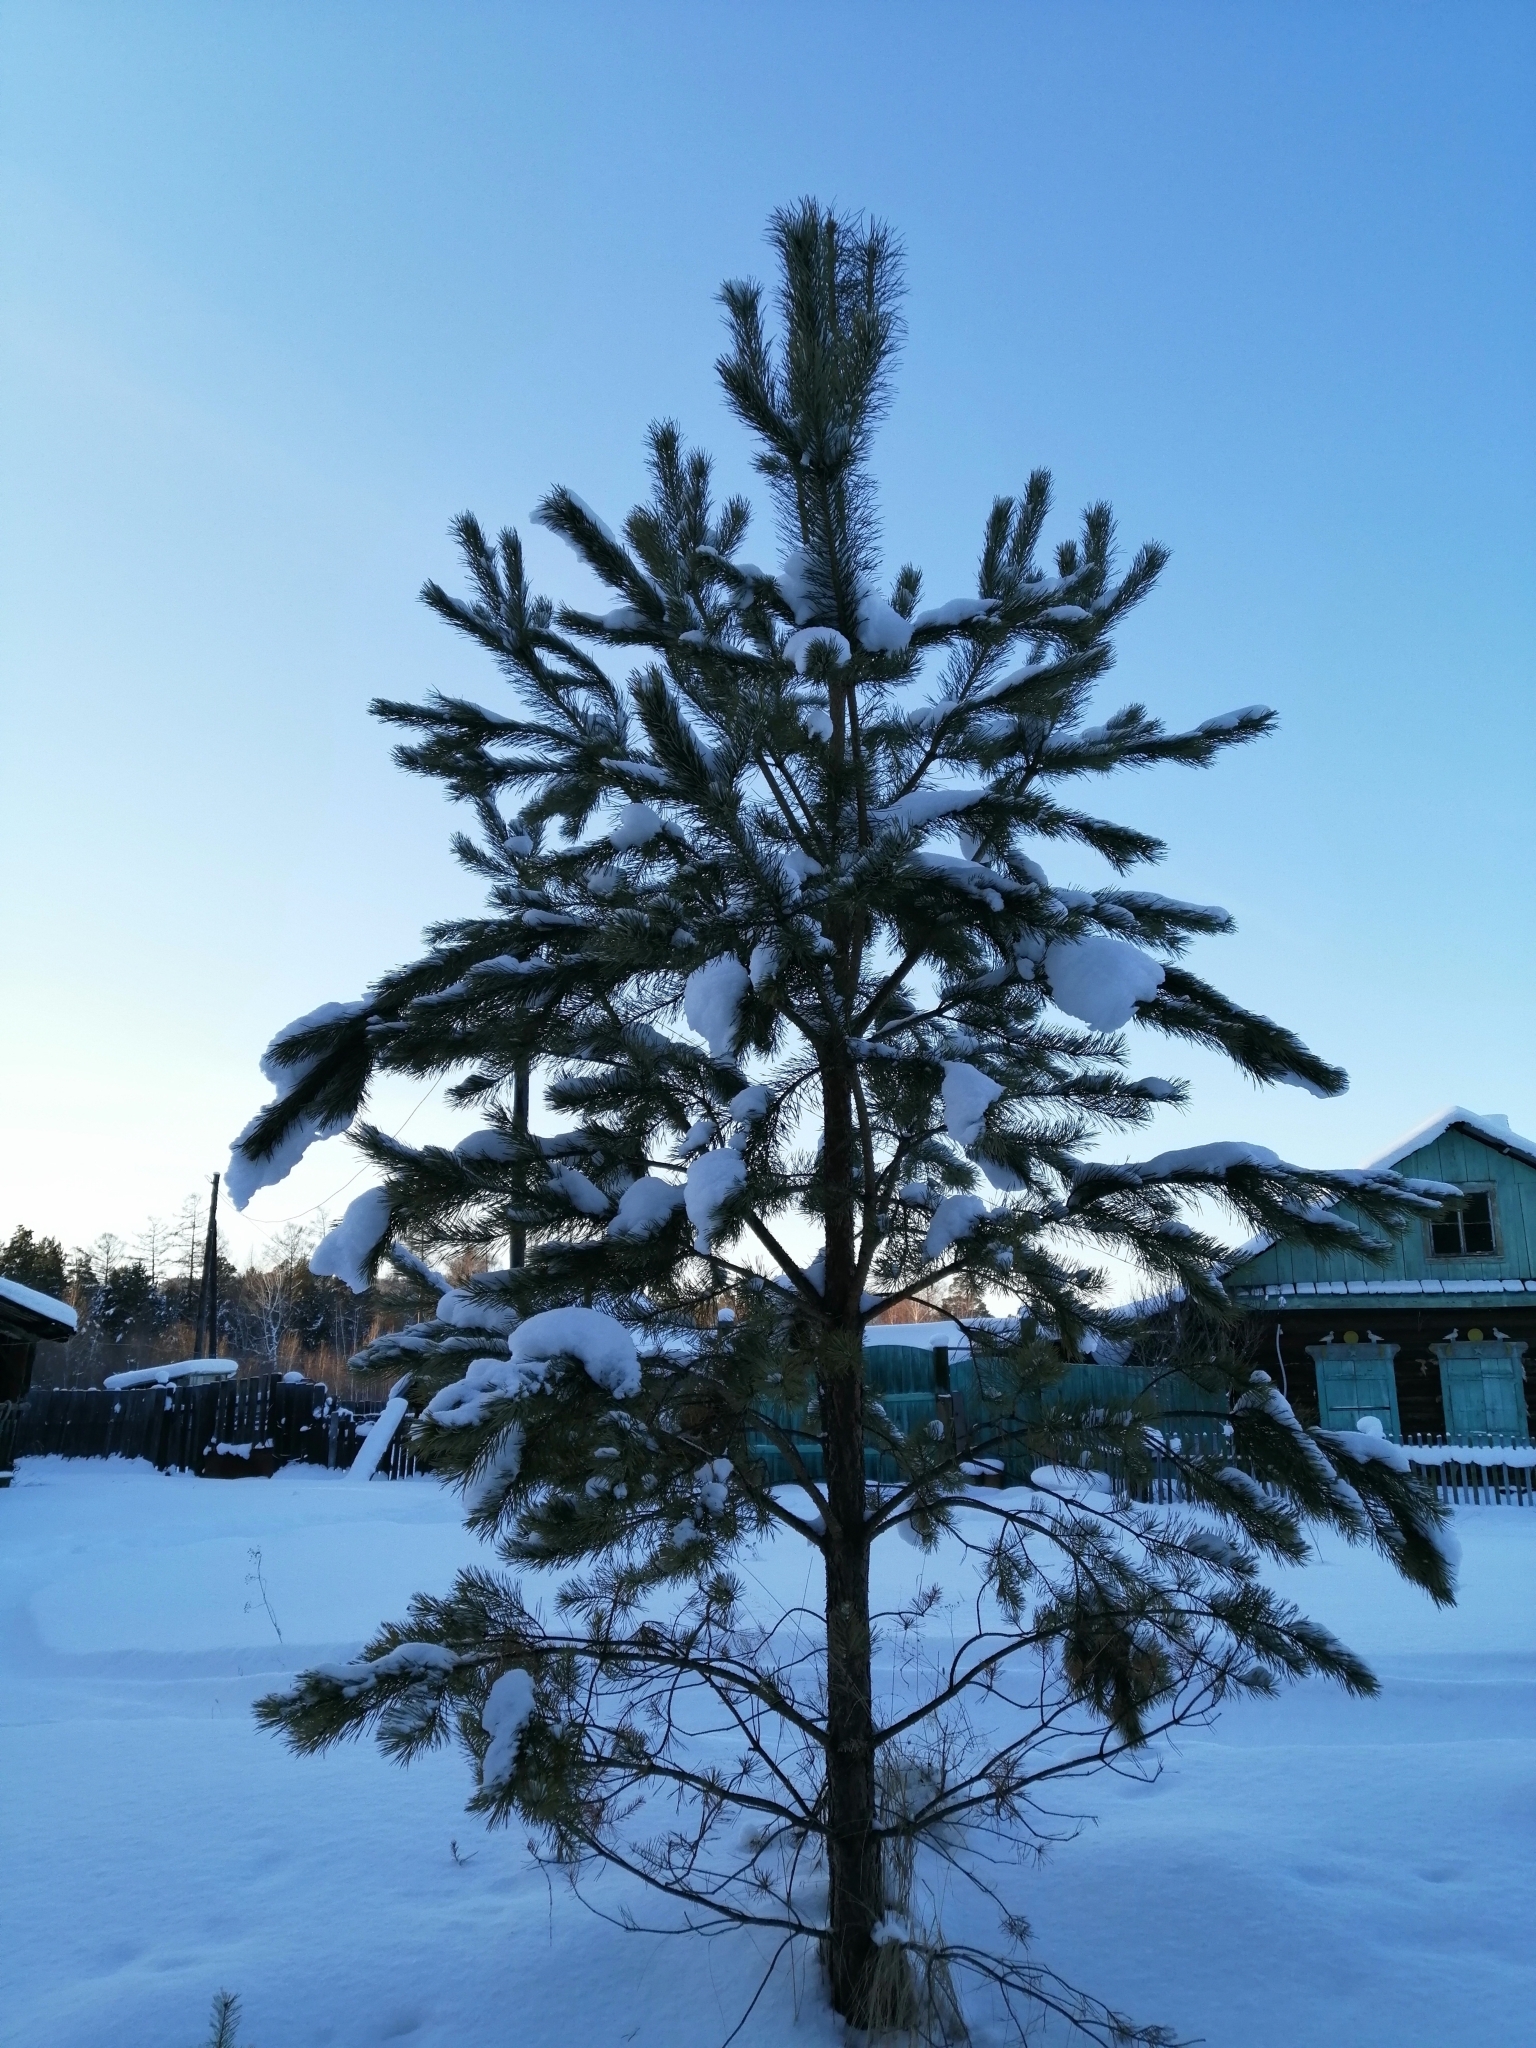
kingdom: Plantae
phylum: Tracheophyta
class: Pinopsida
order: Pinales
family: Pinaceae
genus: Pinus
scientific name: Pinus sylvestris
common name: Scots pine
